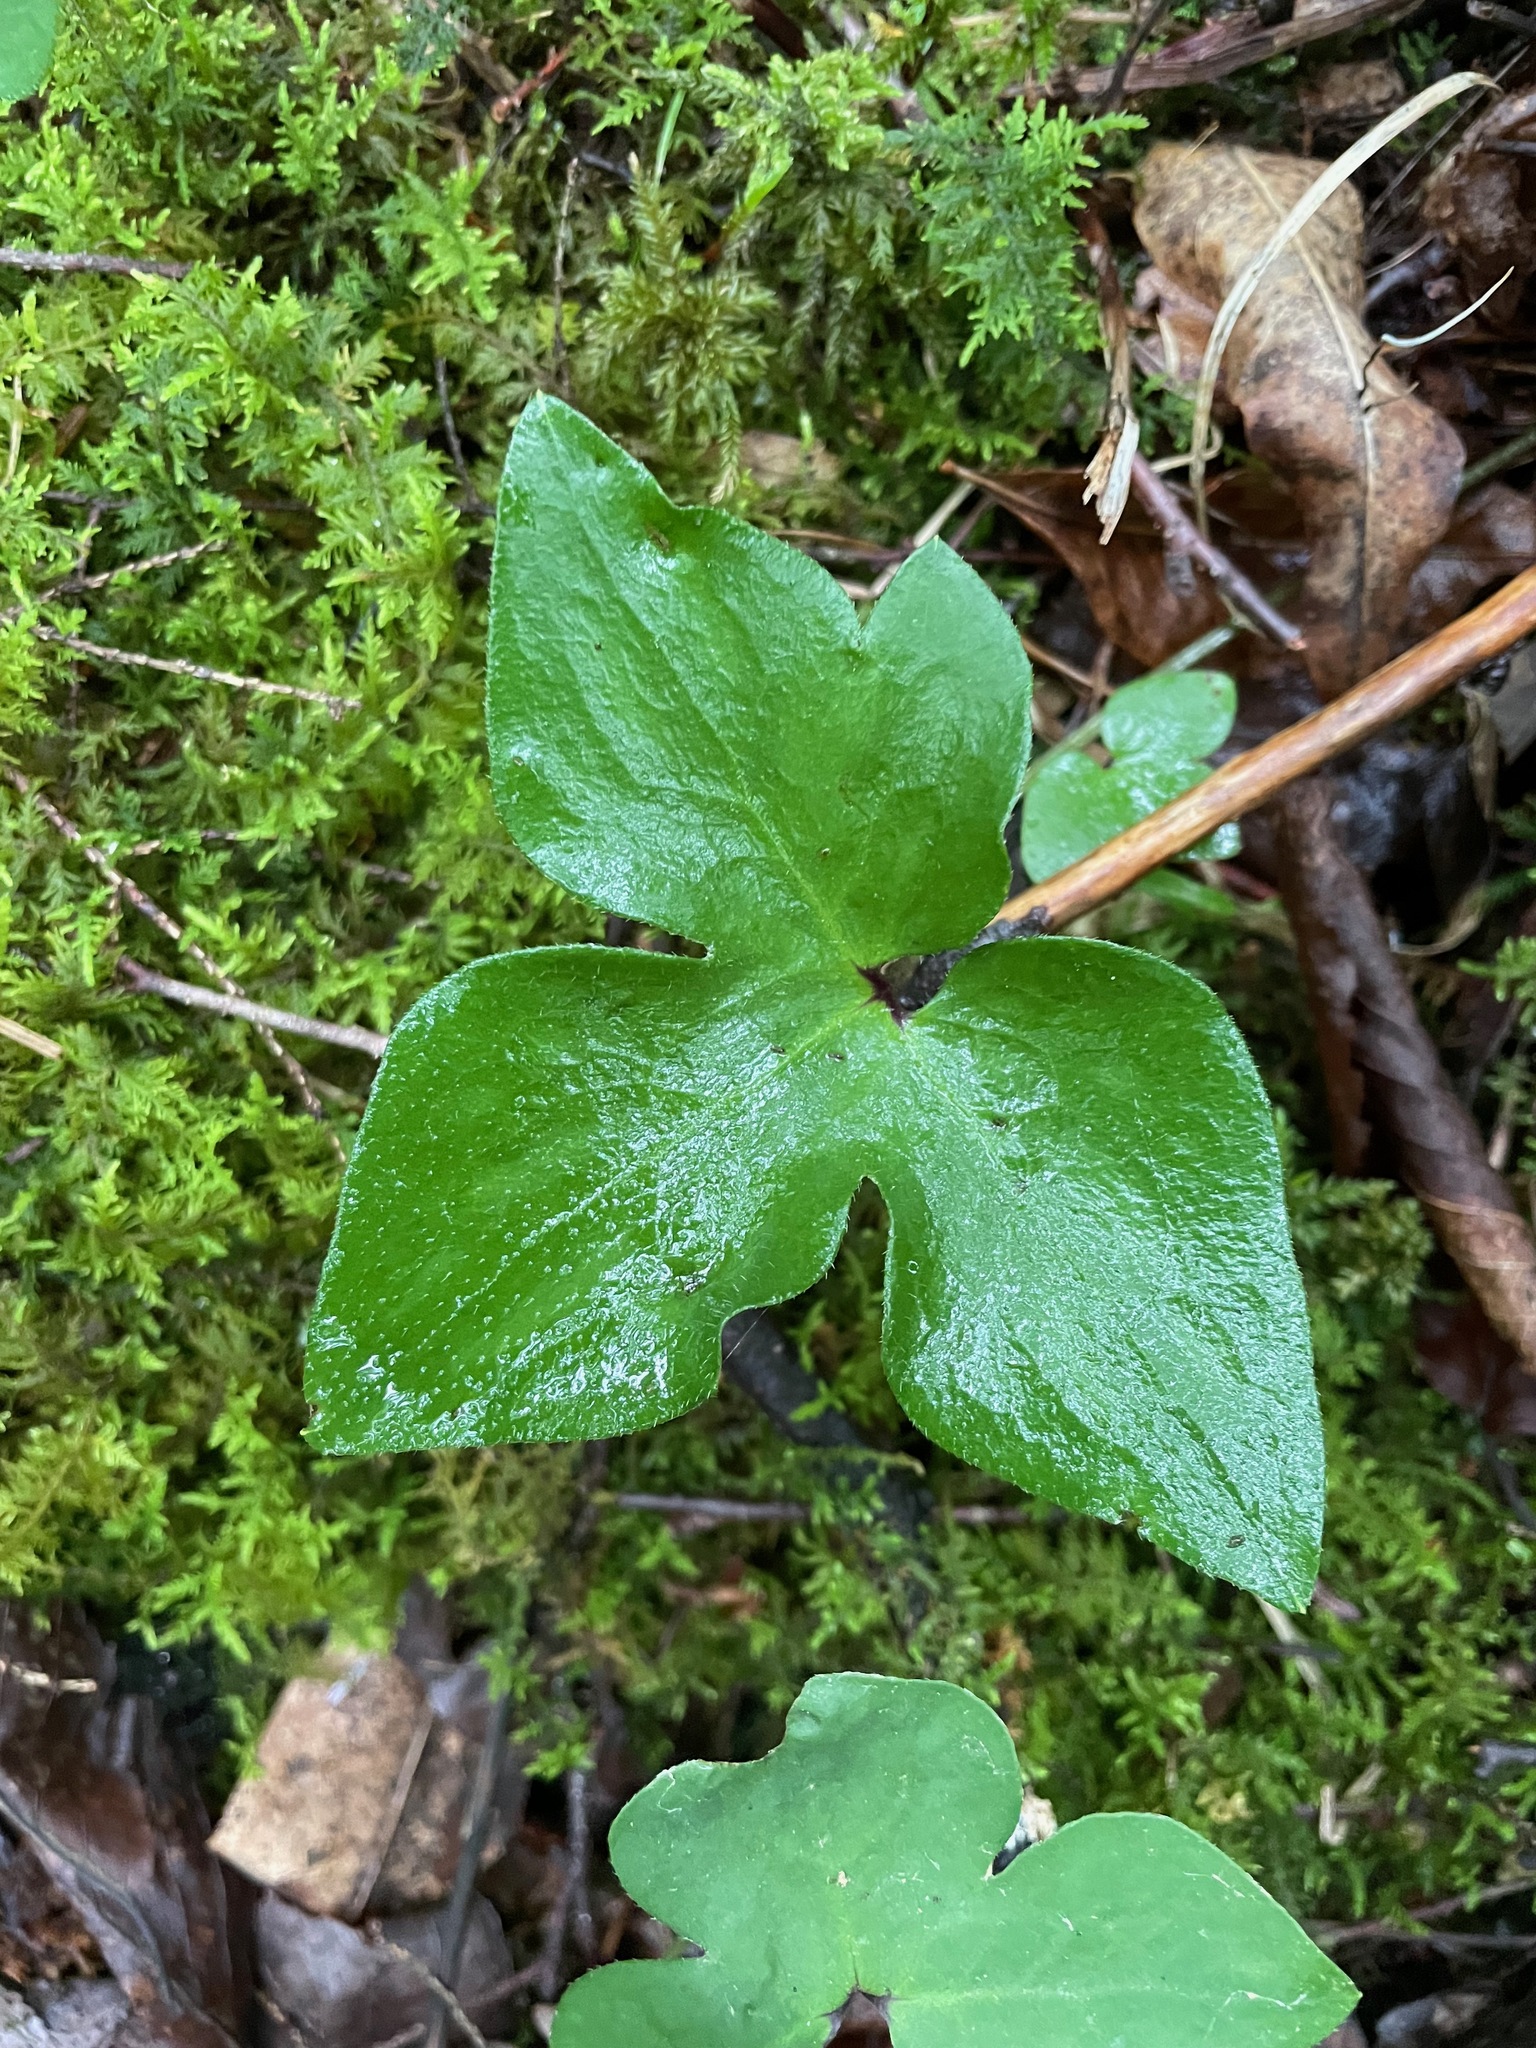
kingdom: Plantae
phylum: Tracheophyta
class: Magnoliopsida
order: Ranunculales
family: Ranunculaceae
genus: Hepatica
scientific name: Hepatica acutiloba
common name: Sharp-lobed hepatica
